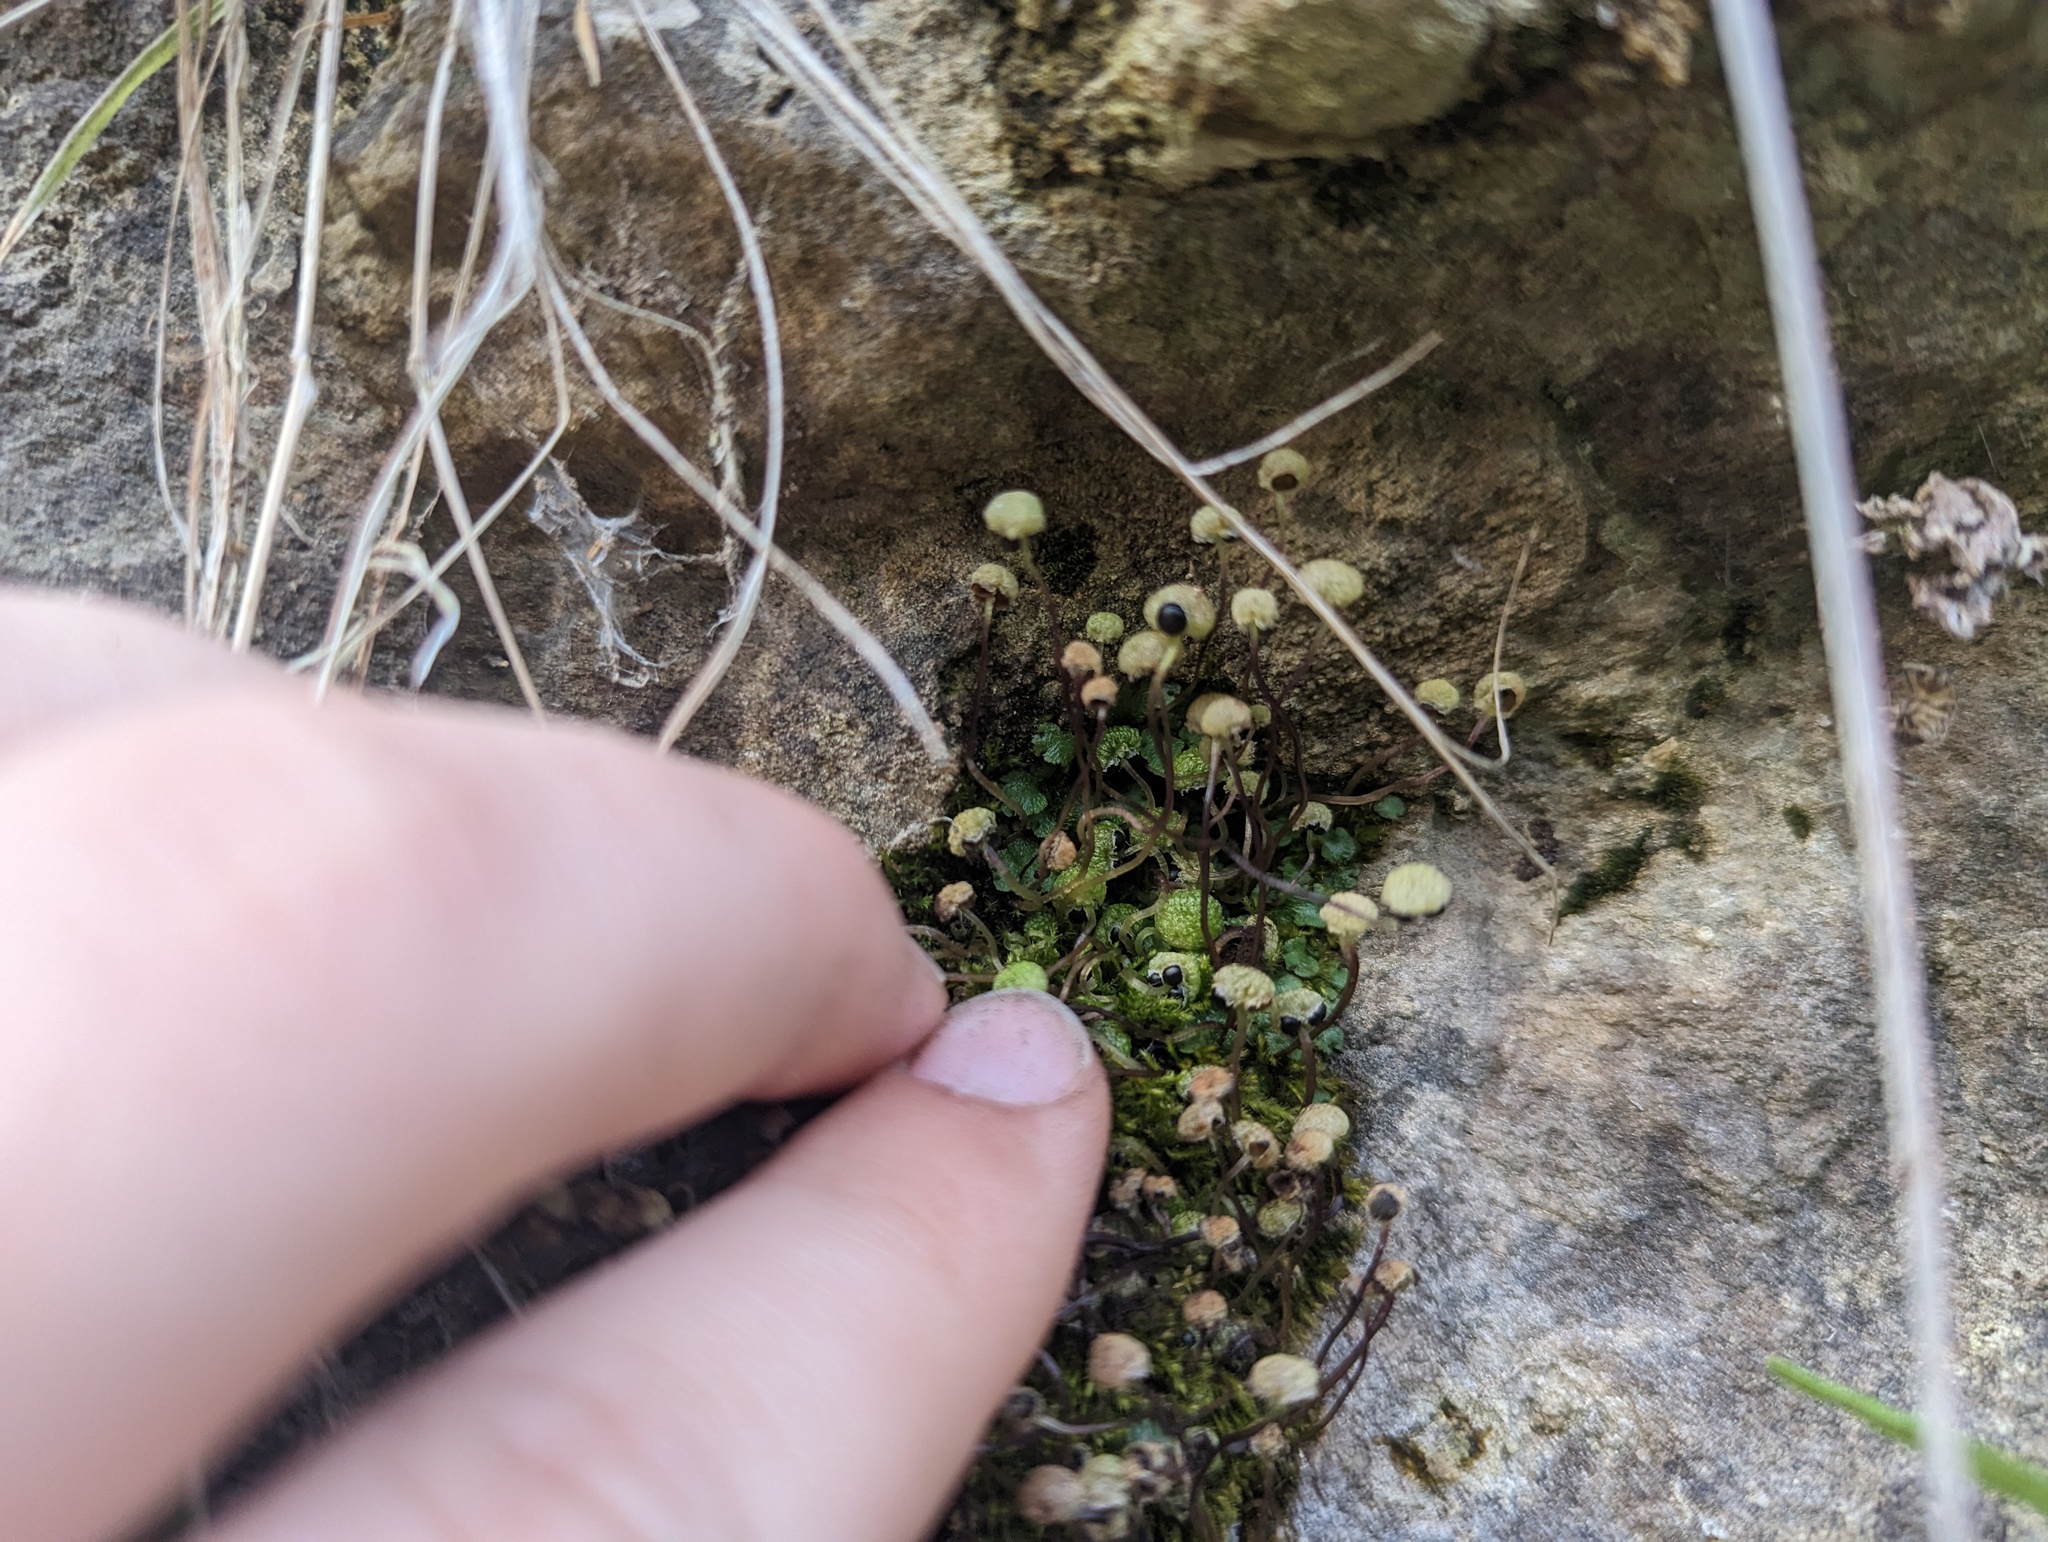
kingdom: Plantae
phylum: Marchantiophyta
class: Marchantiopsida
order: Marchantiales
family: Aytoniaceae
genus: Mannia
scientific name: Mannia triandra
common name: Field macewort
